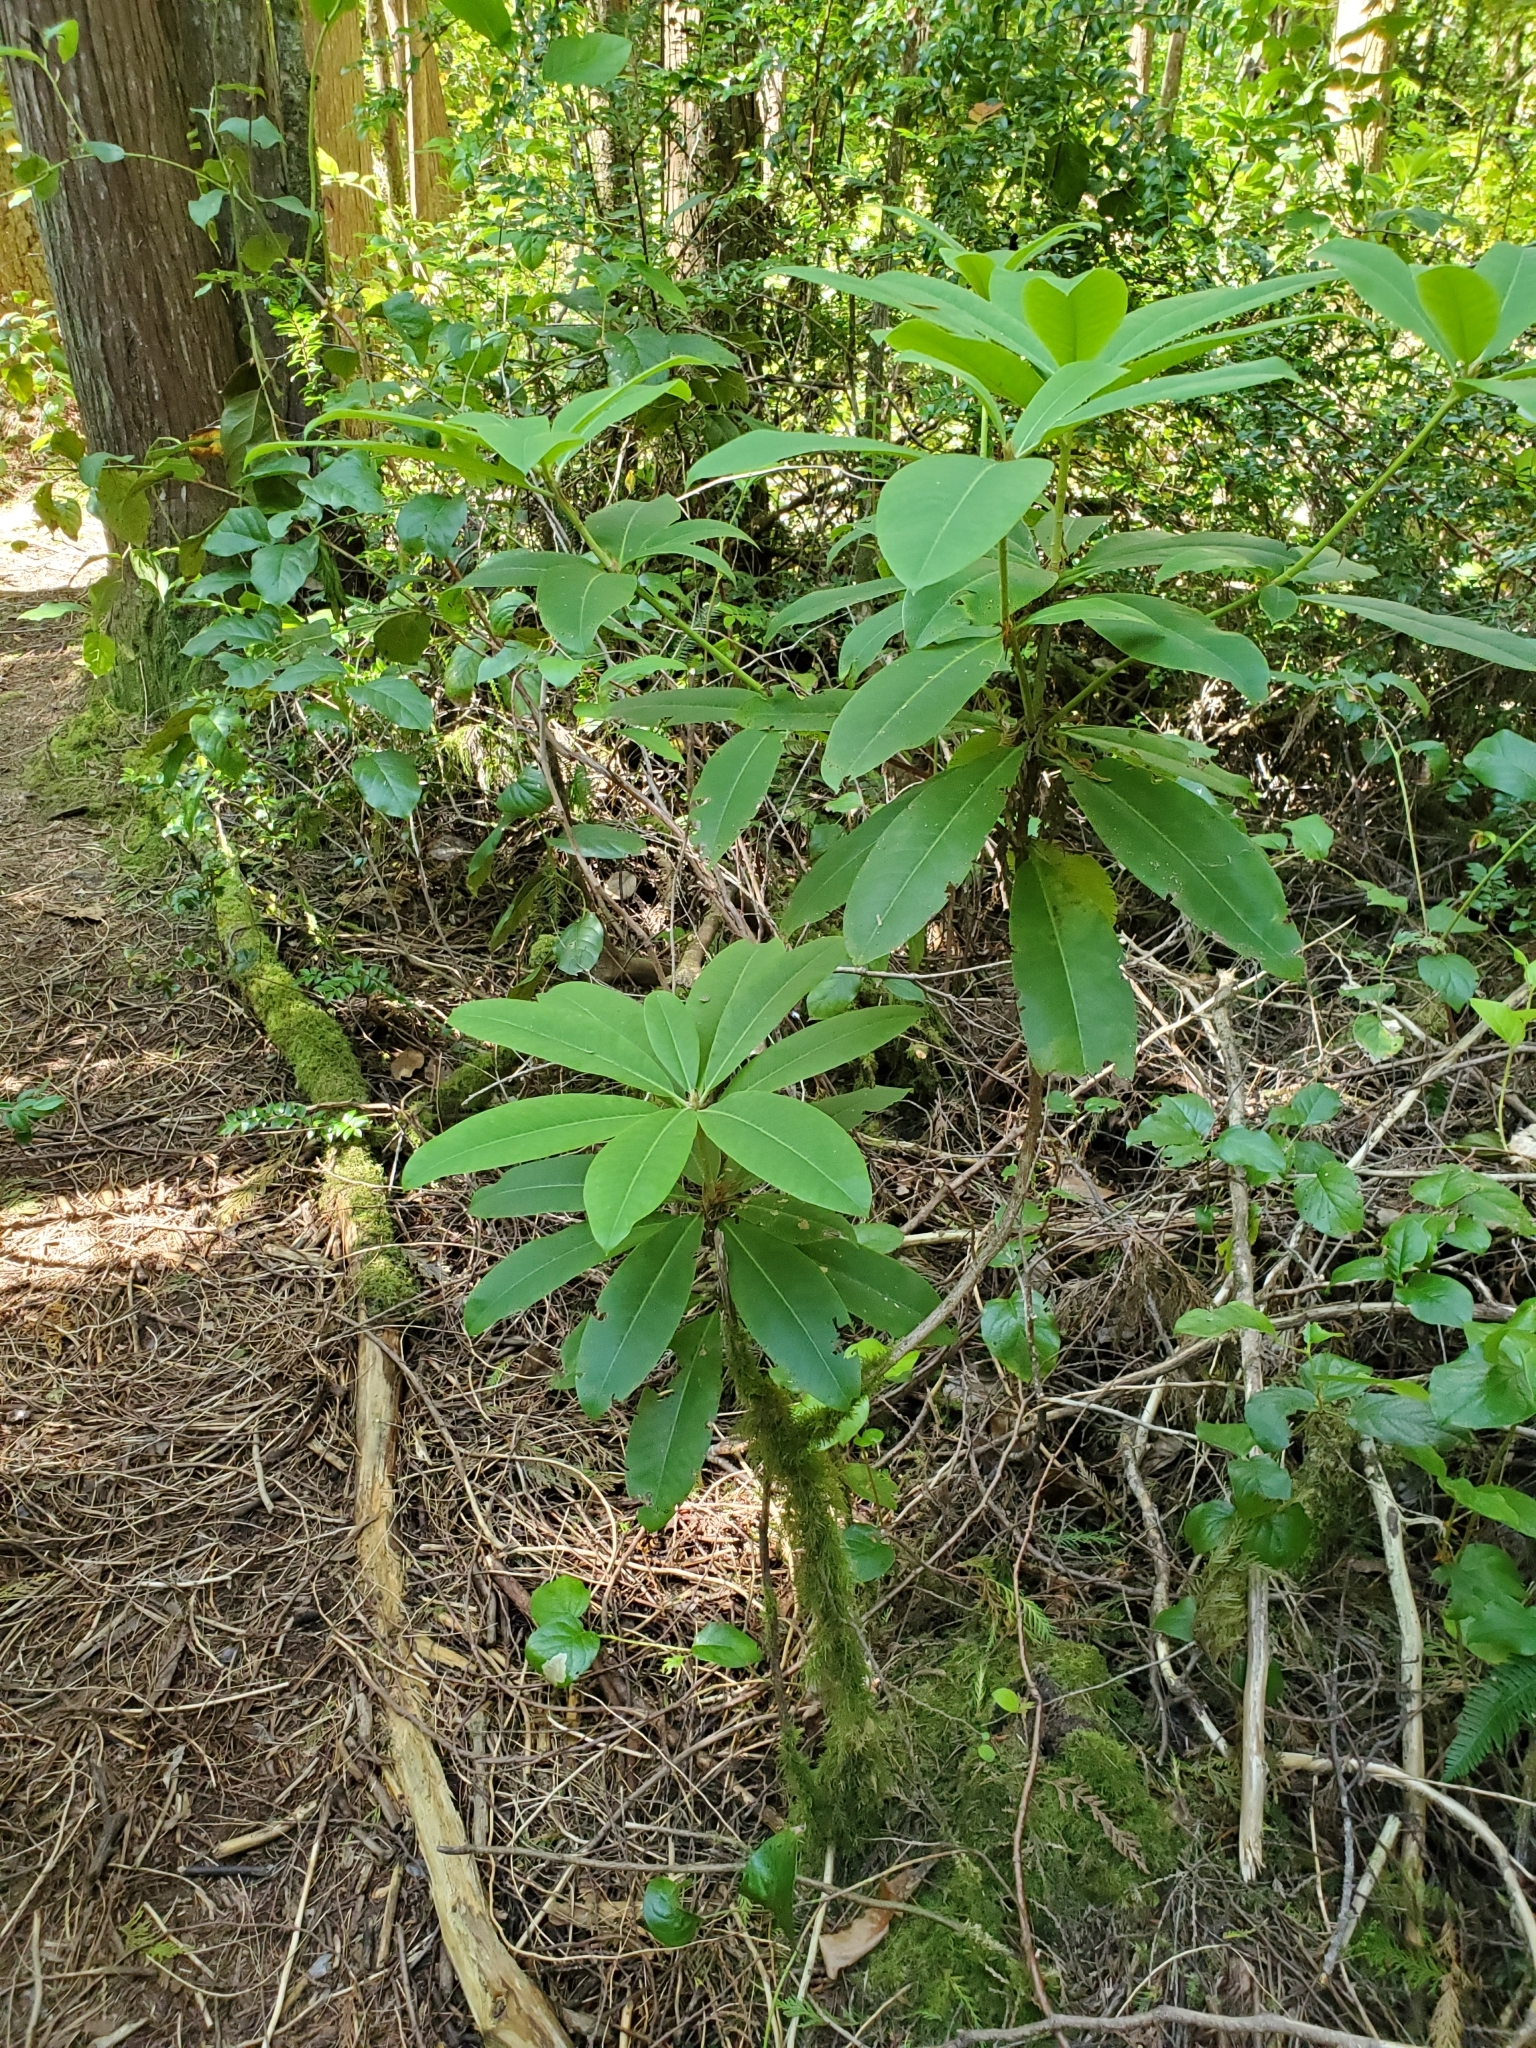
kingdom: Plantae
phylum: Tracheophyta
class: Magnoliopsida
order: Ericales
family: Ericaceae
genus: Rhododendron
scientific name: Rhododendron macrophyllum
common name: California rose bay
